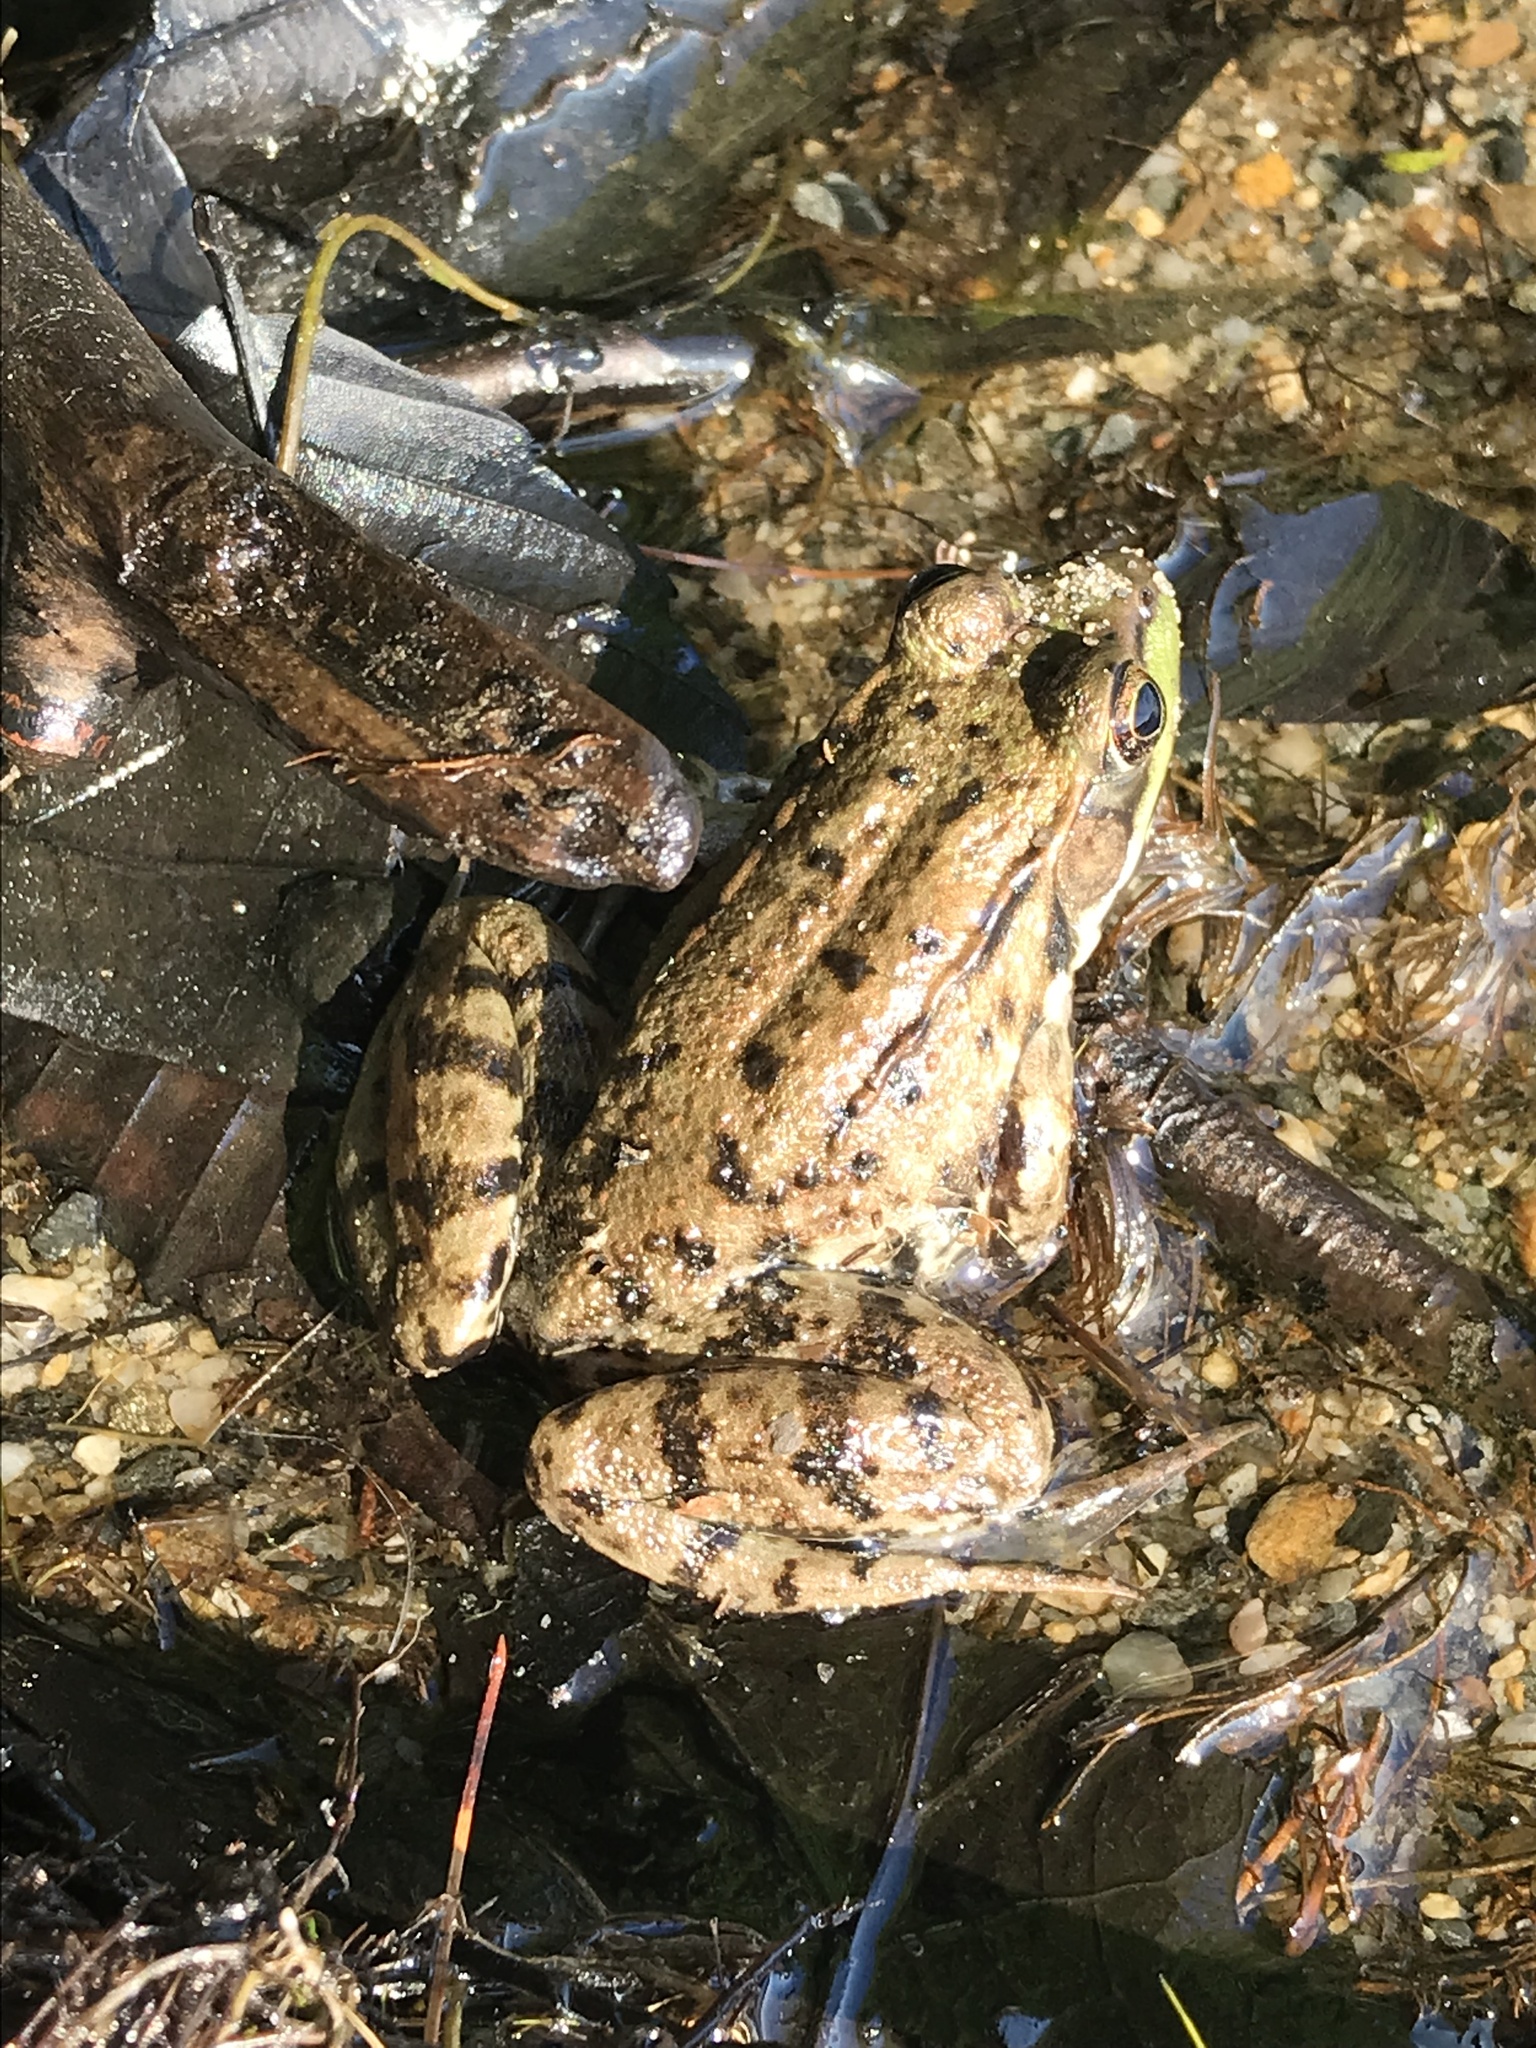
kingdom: Animalia
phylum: Chordata
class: Amphibia
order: Anura
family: Ranidae
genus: Lithobates
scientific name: Lithobates clamitans
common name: Green frog
